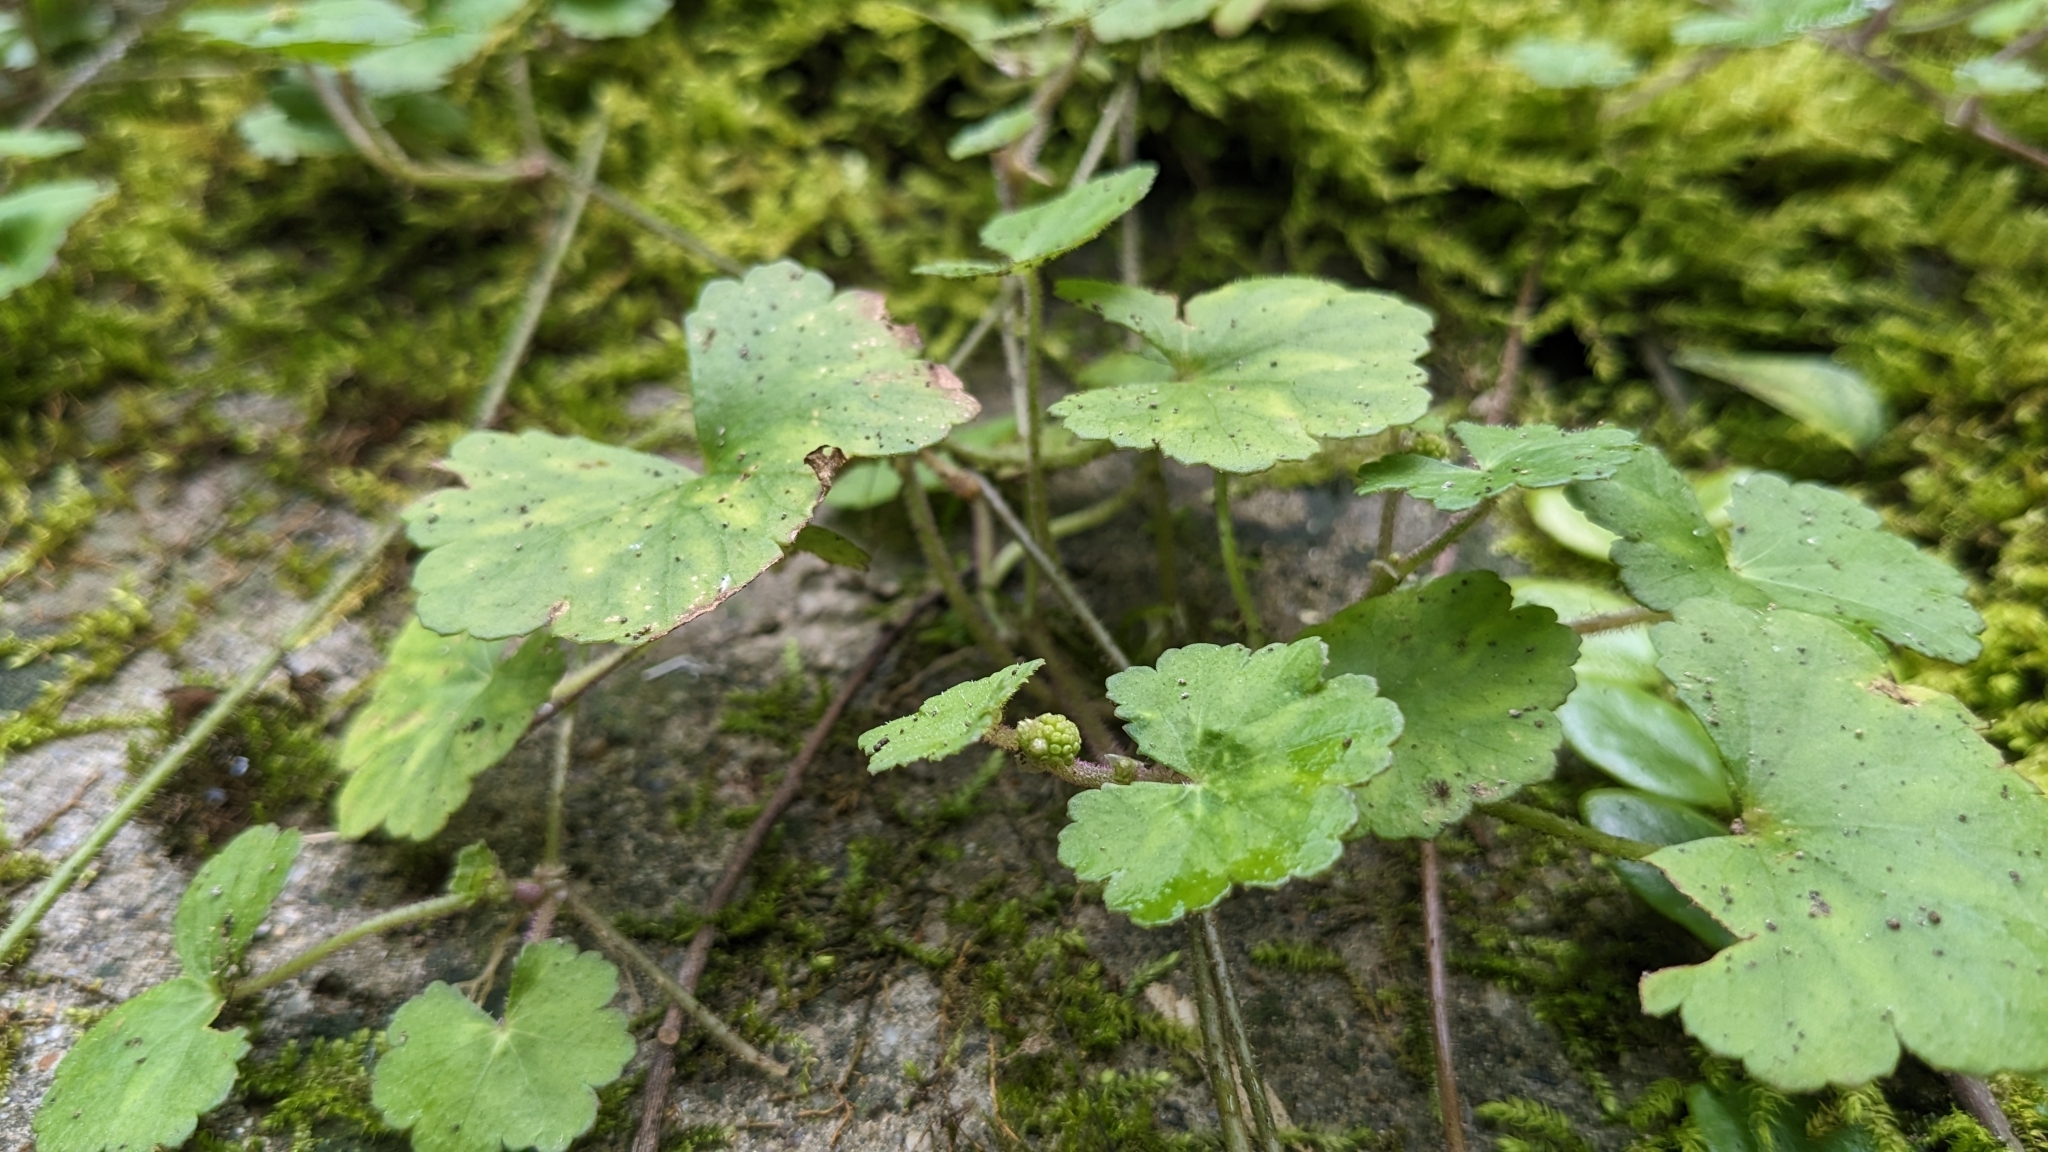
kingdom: Plantae
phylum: Tracheophyta
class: Magnoliopsida
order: Apiales
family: Araliaceae
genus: Hydrocotyle
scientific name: Hydrocotyle nepalensis
